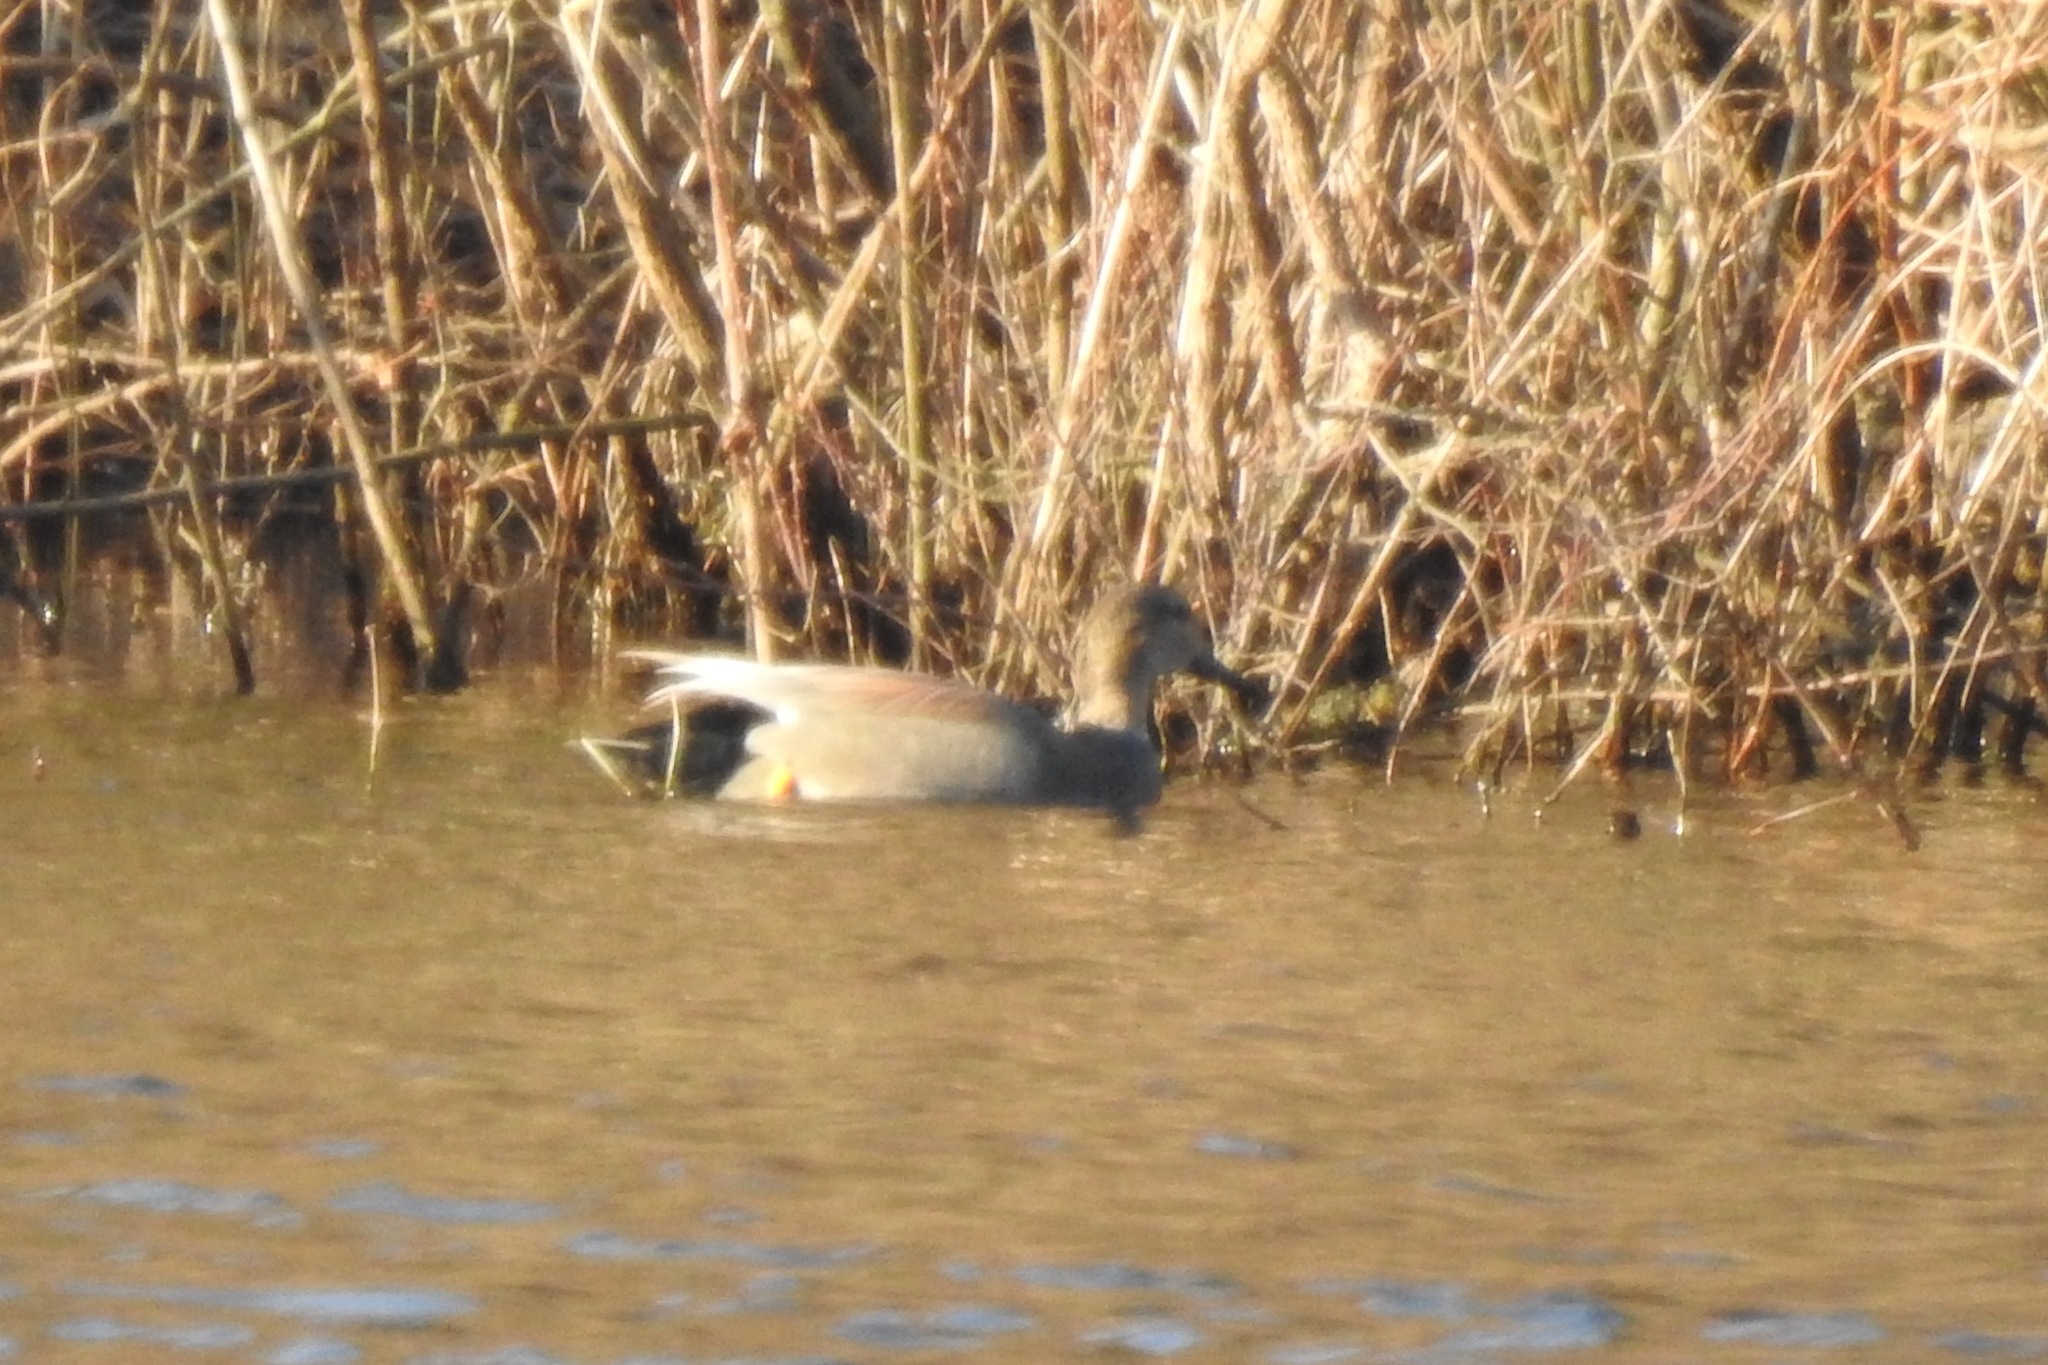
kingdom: Animalia
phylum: Chordata
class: Aves
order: Anseriformes
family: Anatidae
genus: Mareca
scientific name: Mareca strepera
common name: Gadwall
